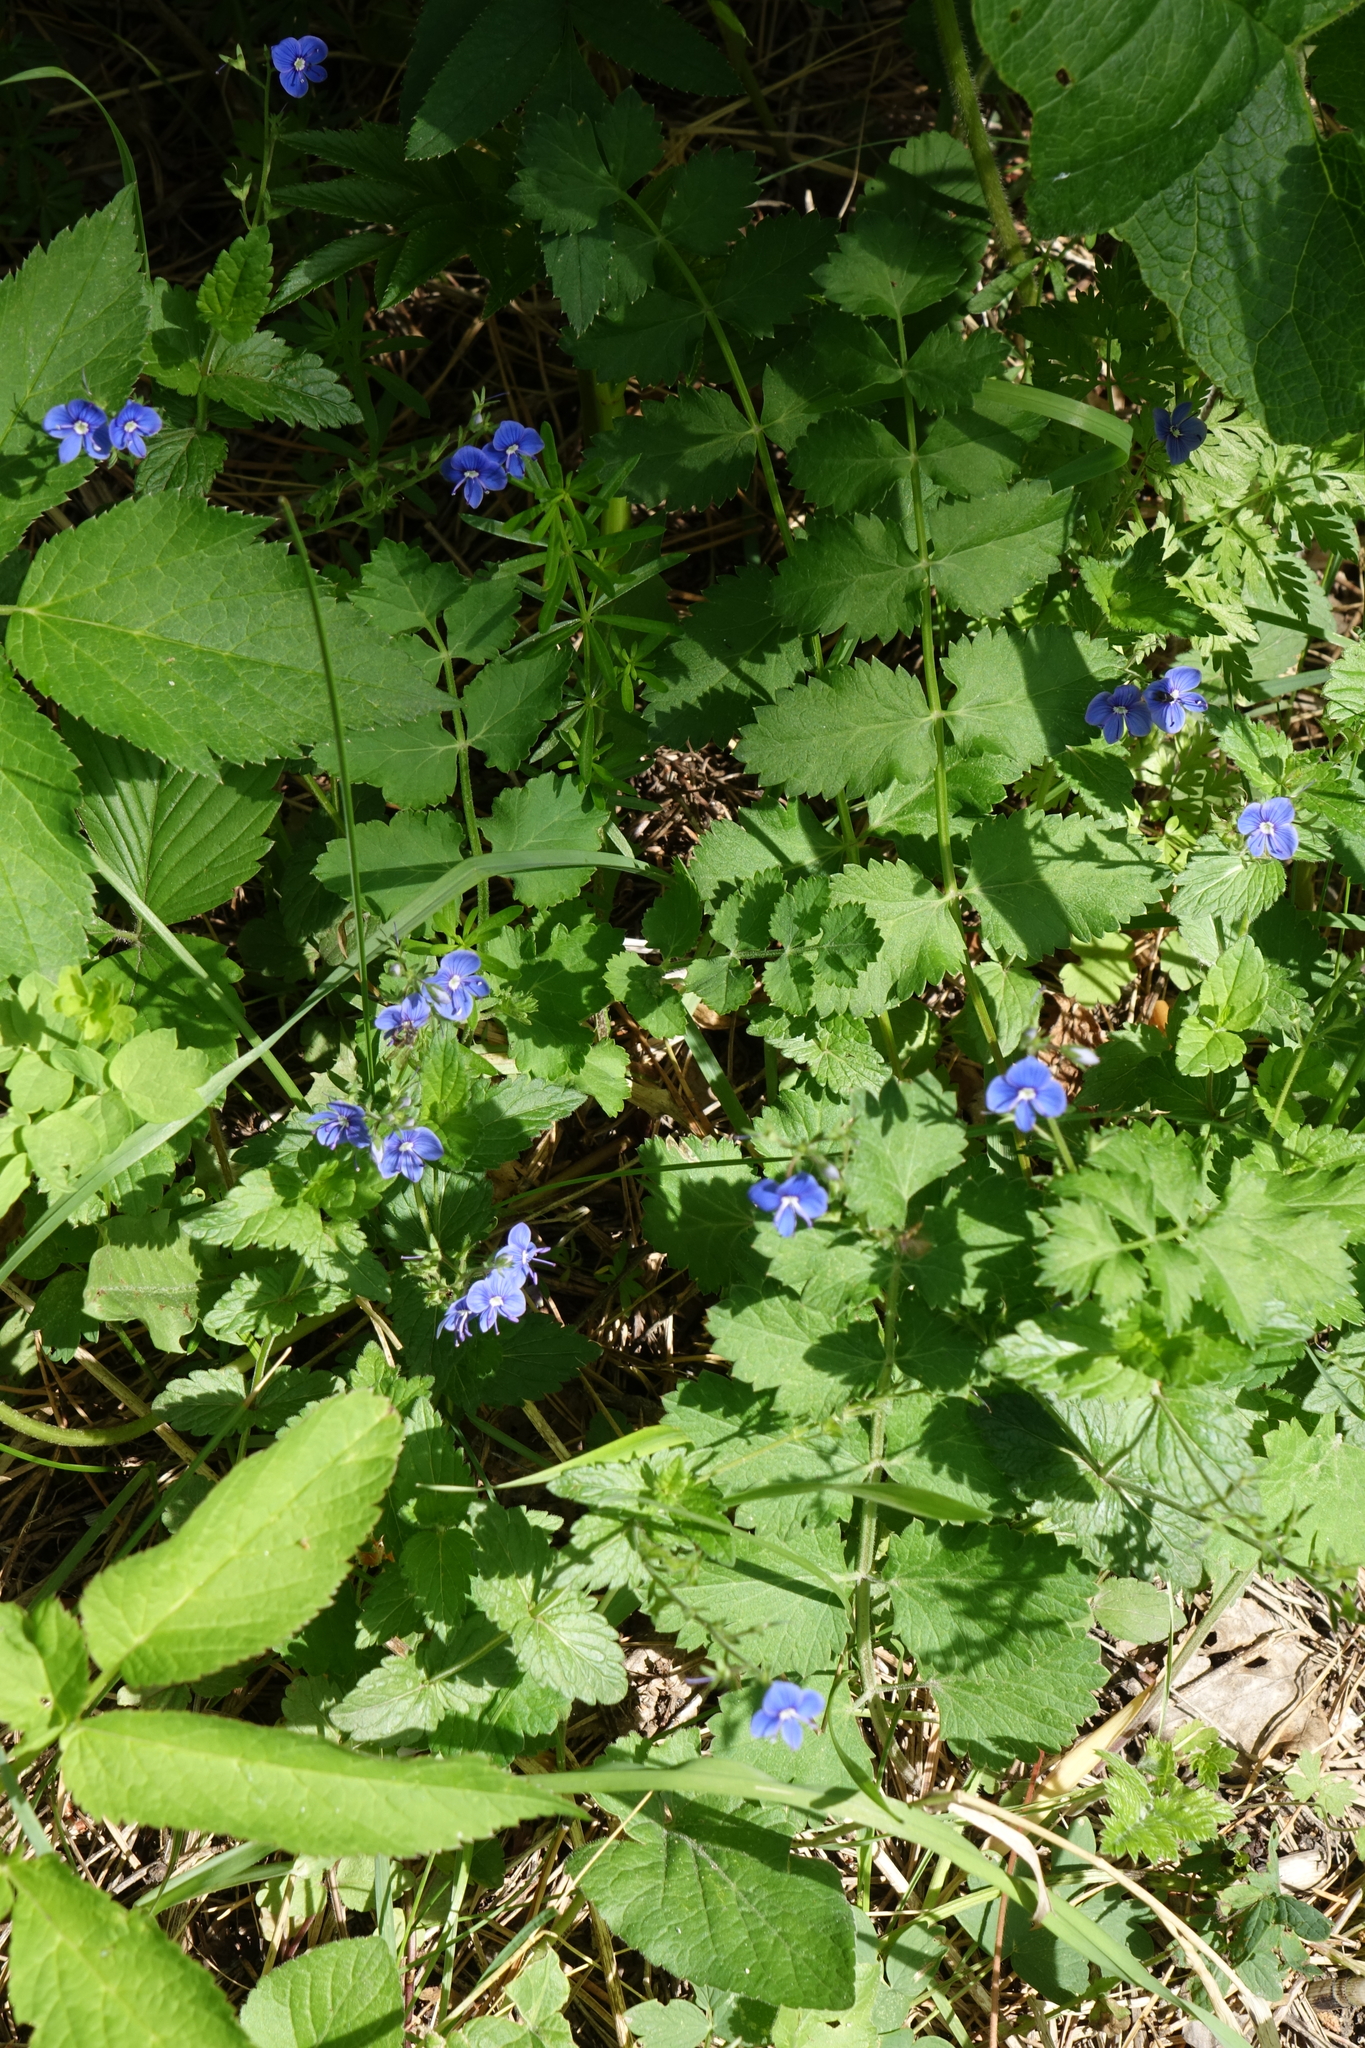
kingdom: Plantae
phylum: Tracheophyta
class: Magnoliopsida
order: Lamiales
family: Plantaginaceae
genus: Veronica
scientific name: Veronica chamaedrys
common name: Germander speedwell
